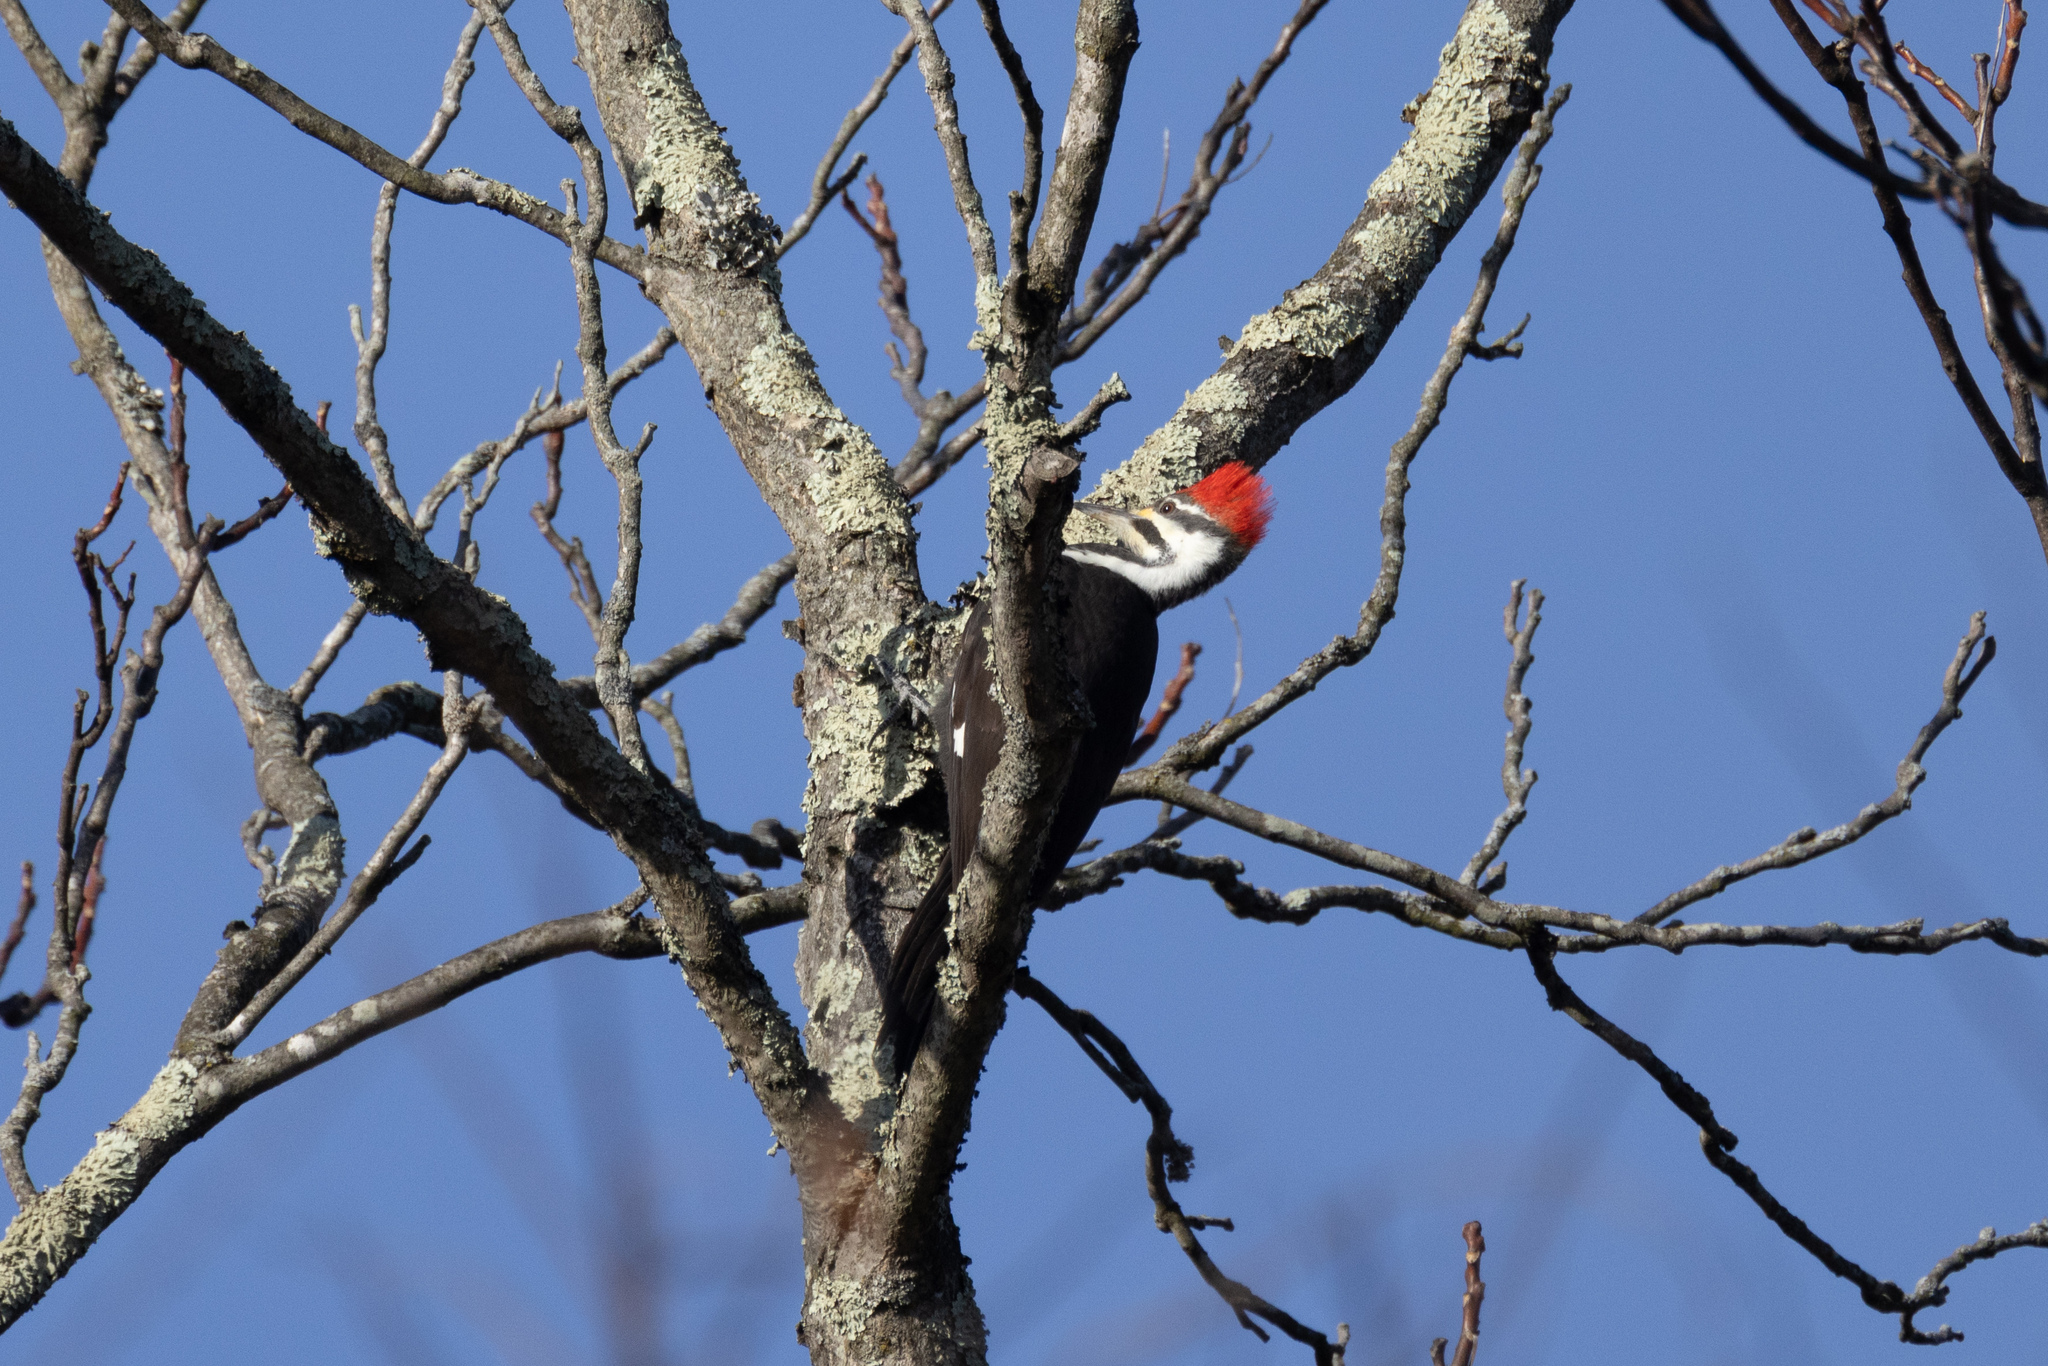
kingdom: Animalia
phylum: Chordata
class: Aves
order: Piciformes
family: Picidae
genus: Dryocopus
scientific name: Dryocopus pileatus
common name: Pileated woodpecker
